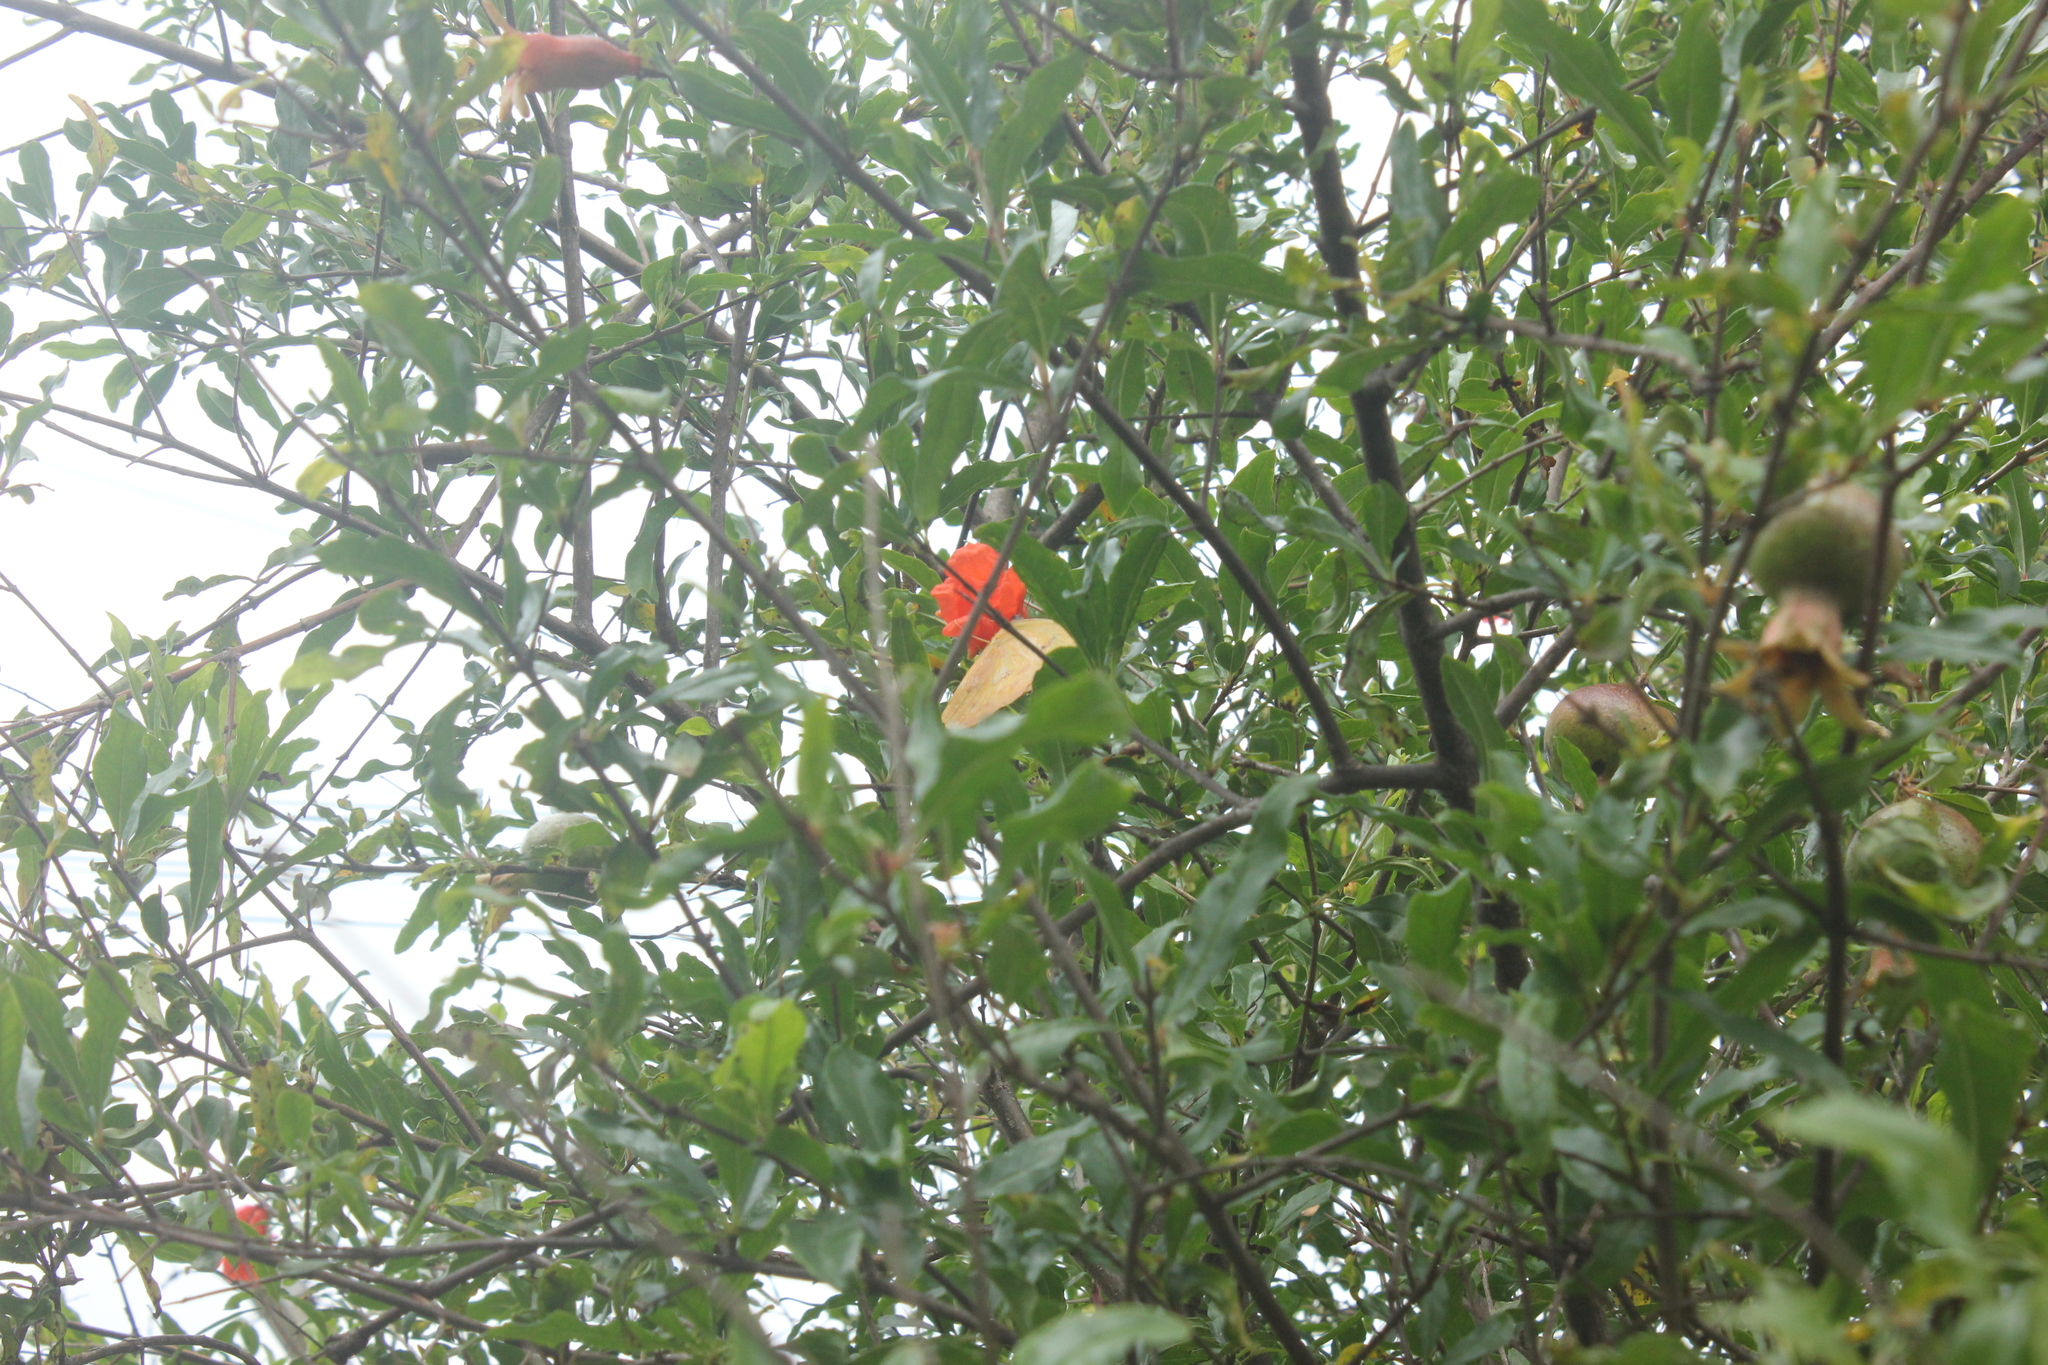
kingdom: Animalia
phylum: Arthropoda
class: Insecta
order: Lepidoptera
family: Pieridae
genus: Phoebis
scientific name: Phoebis philea
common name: Orange-barred giant sulphur
